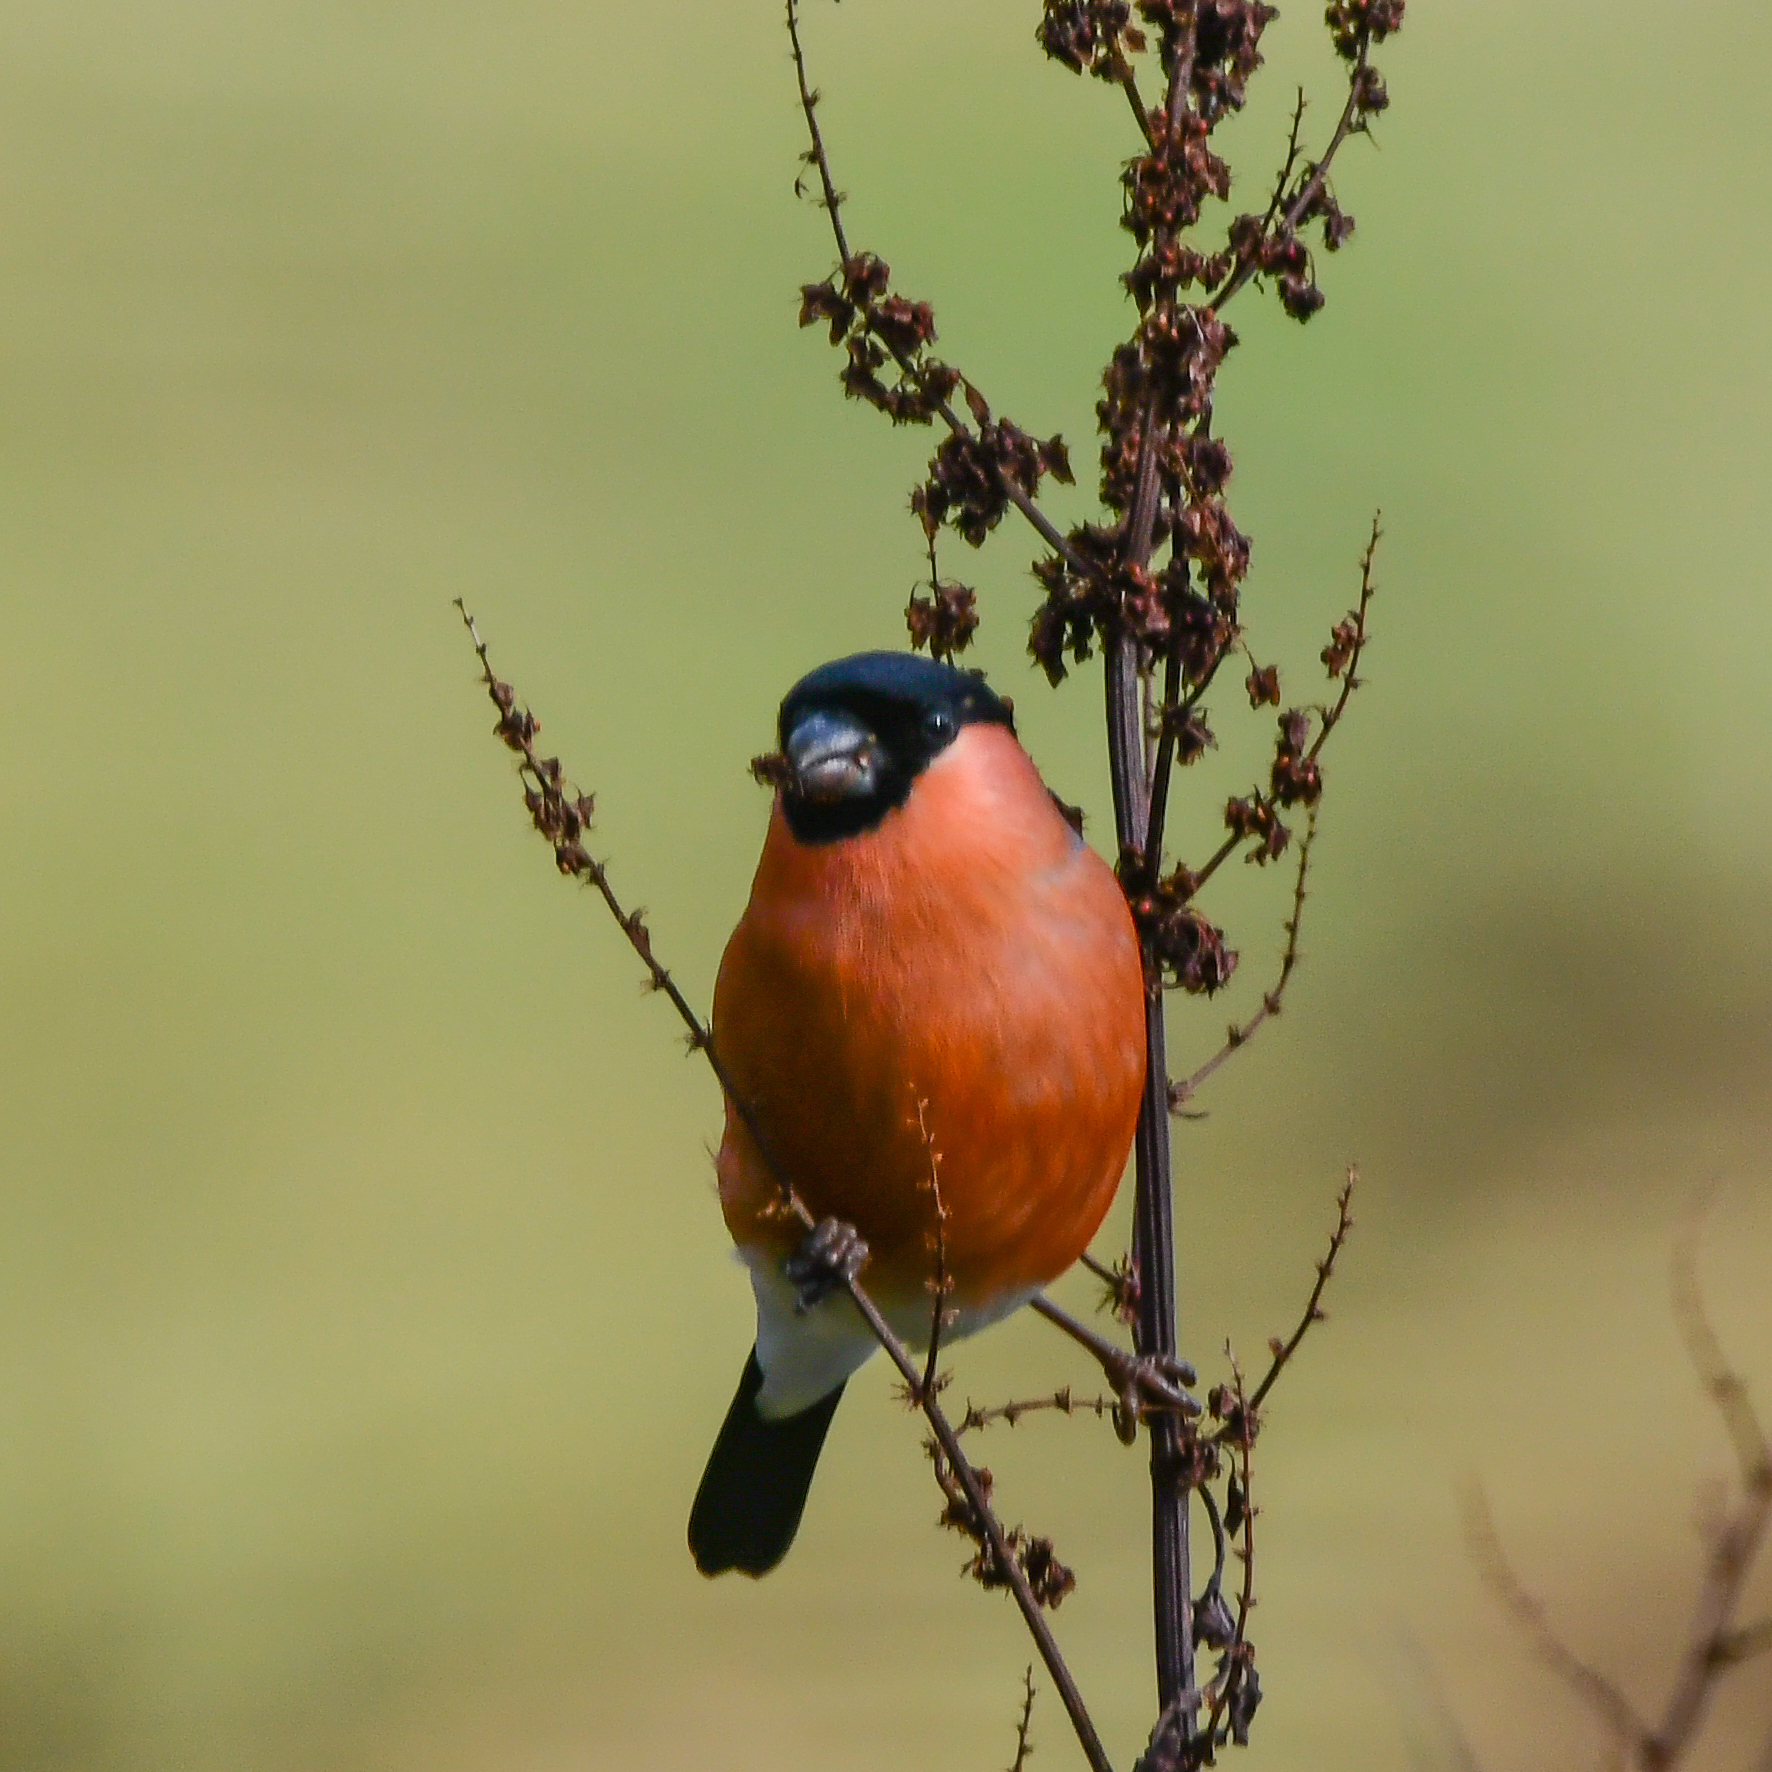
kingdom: Animalia
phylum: Chordata
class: Aves
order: Passeriformes
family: Fringillidae
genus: Pyrrhula
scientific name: Pyrrhula pyrrhula
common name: Eurasian bullfinch
